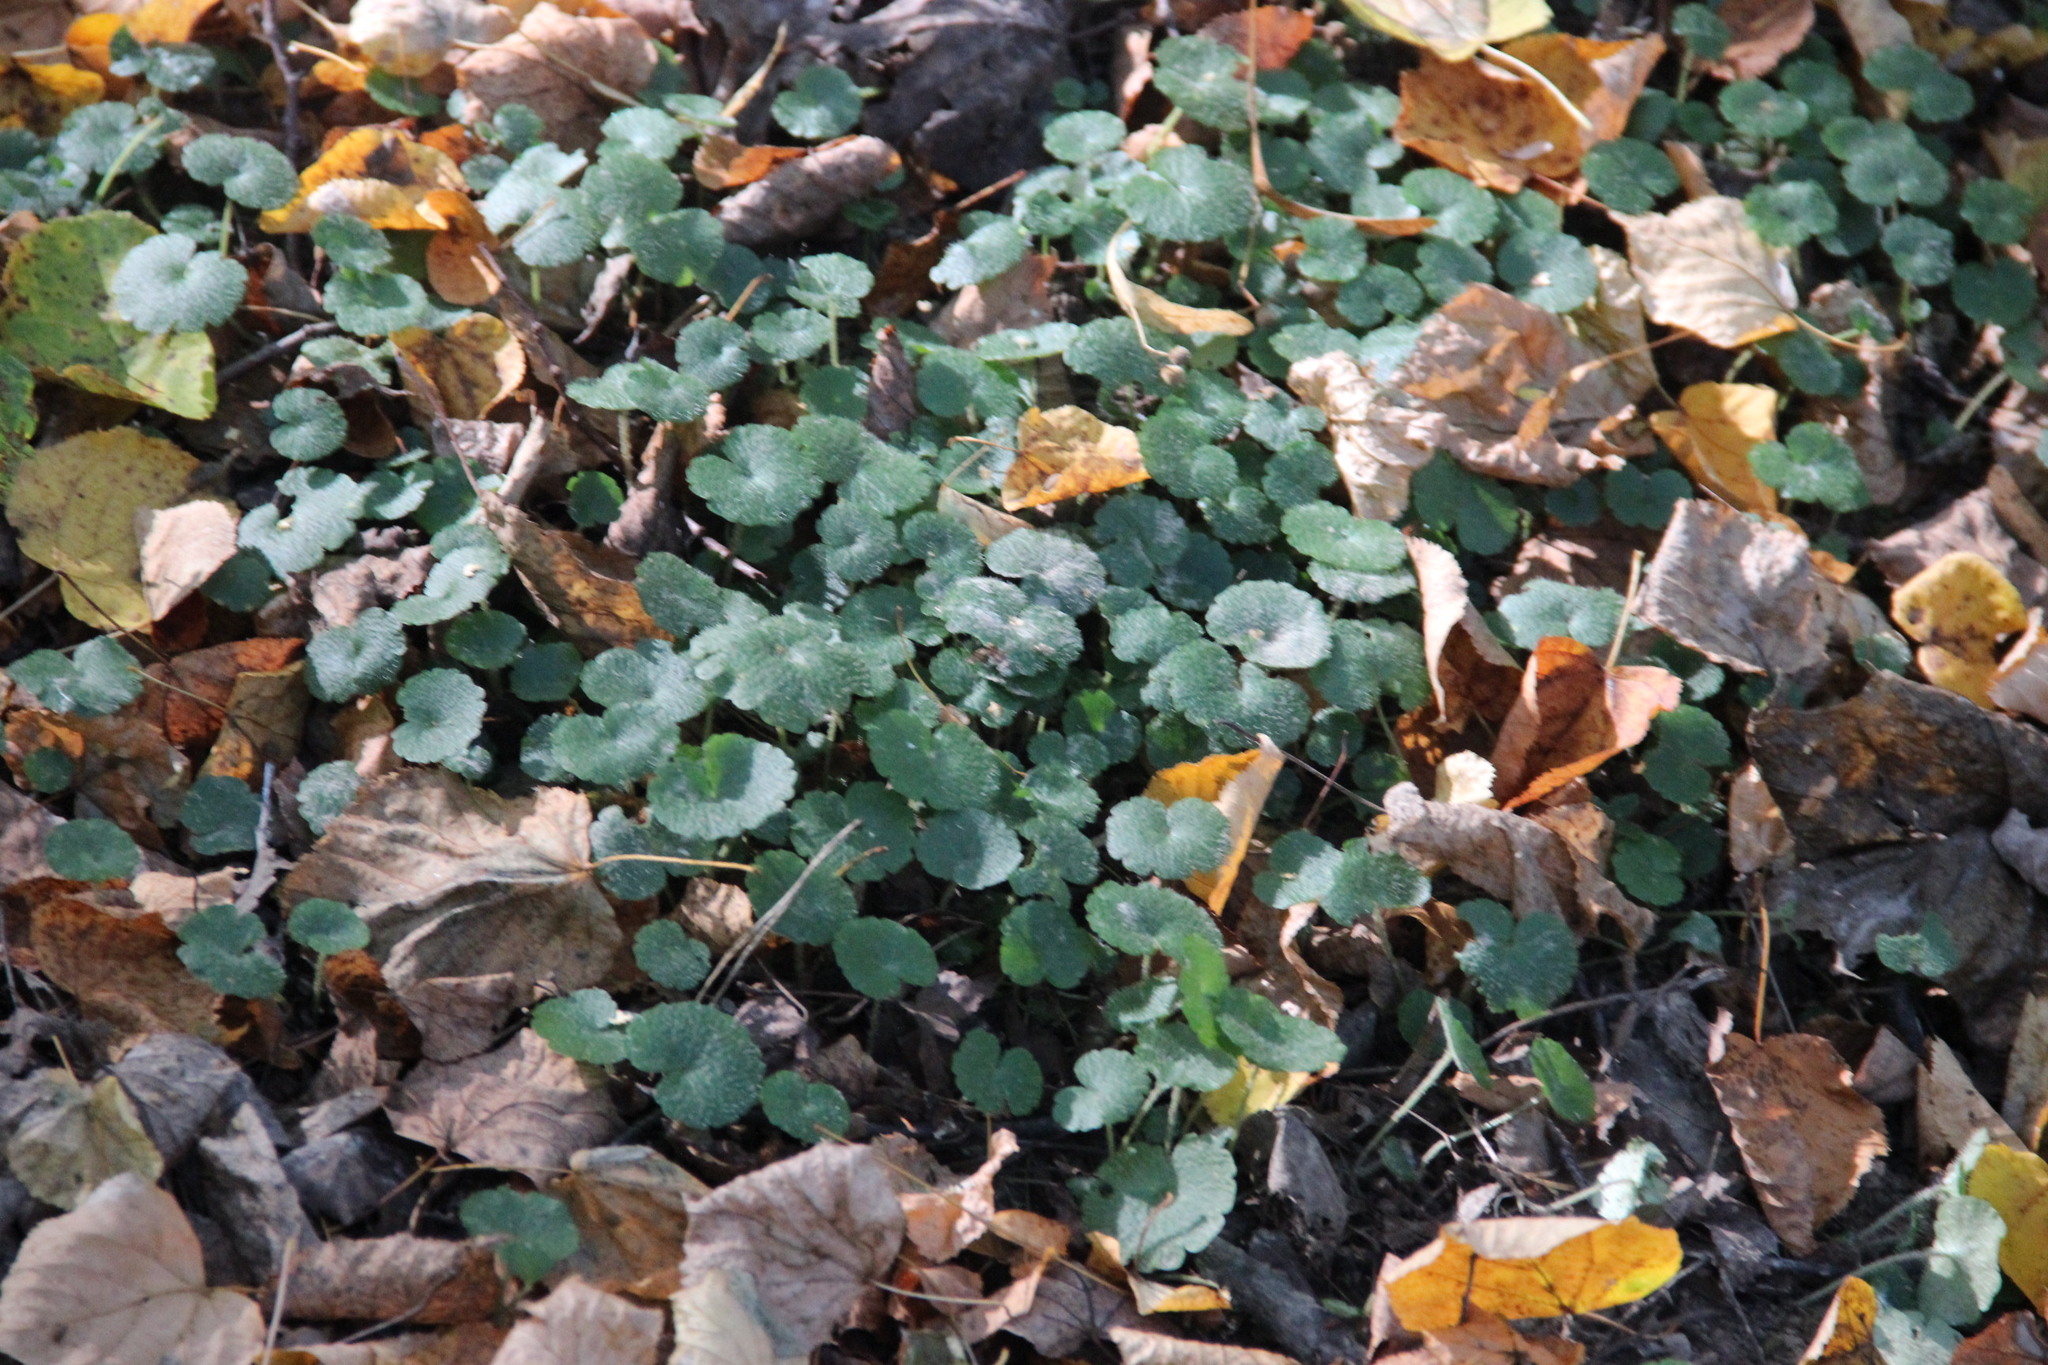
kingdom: Plantae
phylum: Tracheophyta
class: Magnoliopsida
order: Lamiales
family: Lamiaceae
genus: Glechoma
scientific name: Glechoma hederacea
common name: Ground ivy
